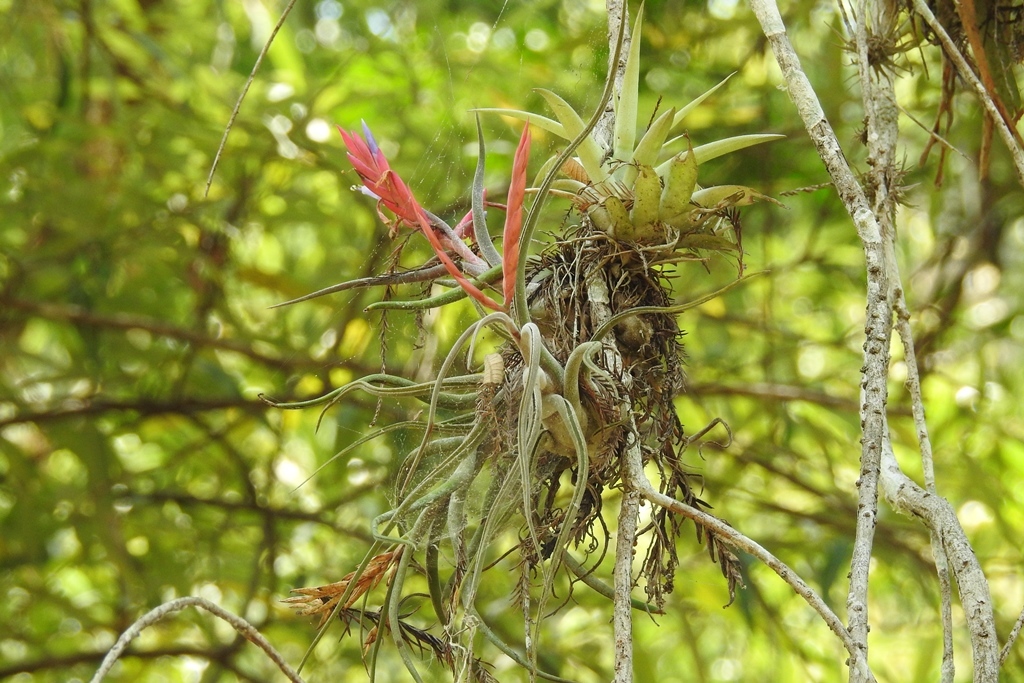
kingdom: Plantae
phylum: Tracheophyta
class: Liliopsida
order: Poales
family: Bromeliaceae
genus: Tillandsia
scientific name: Tillandsia caput-medusae
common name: Octopus plant
